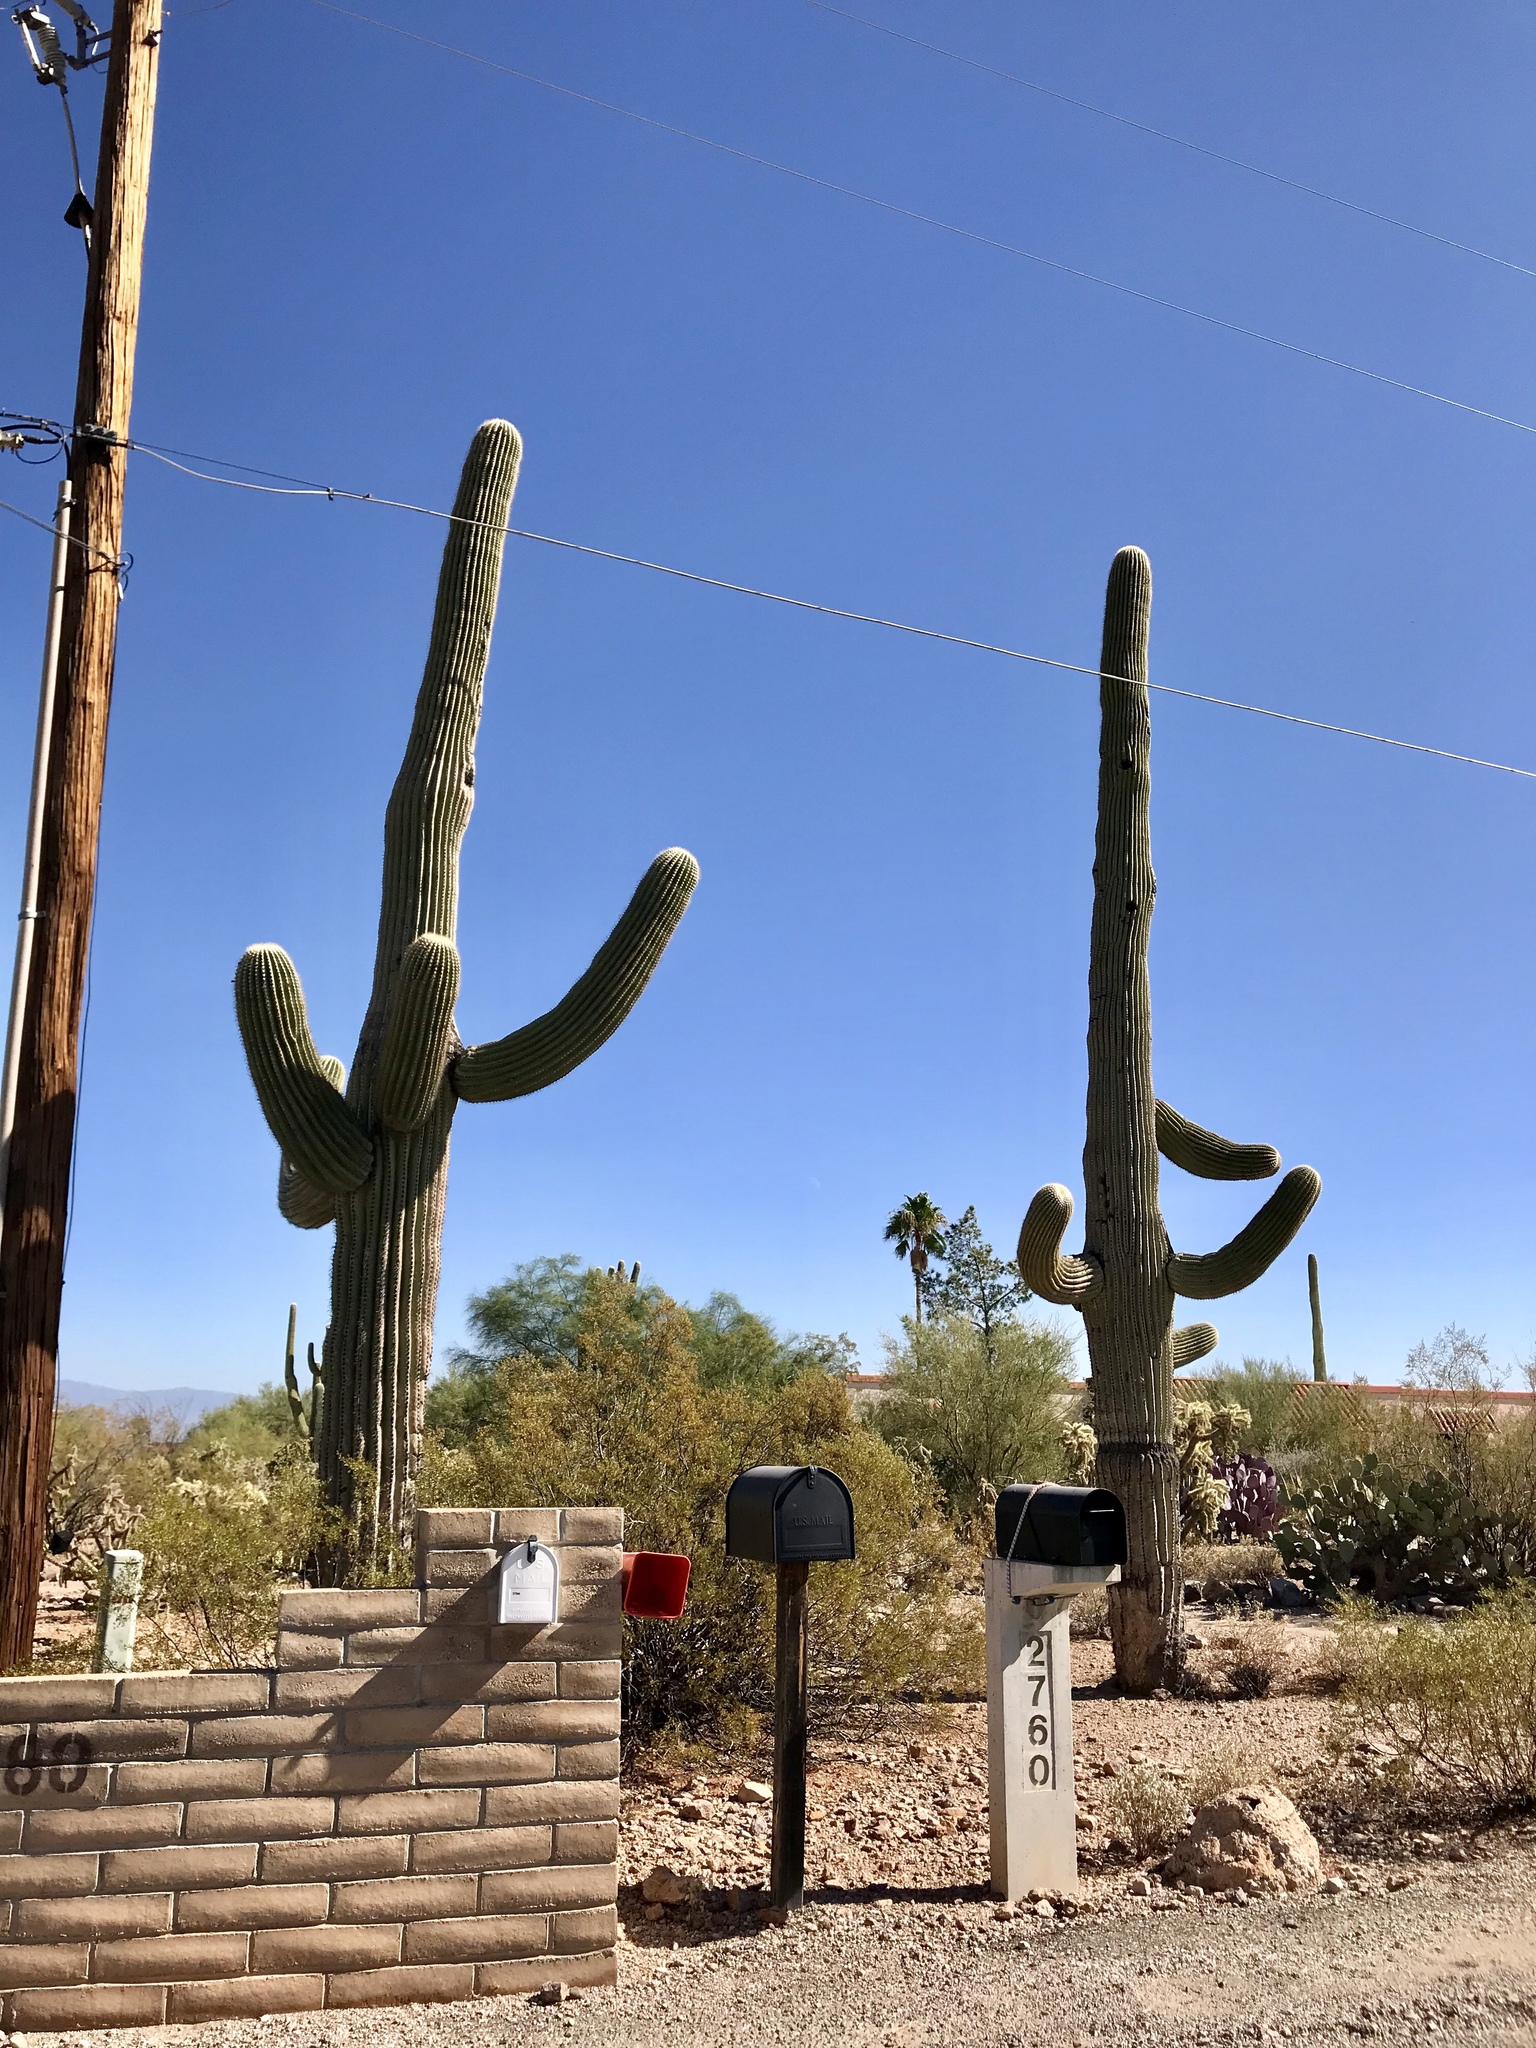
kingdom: Plantae
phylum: Tracheophyta
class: Magnoliopsida
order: Caryophyllales
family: Cactaceae
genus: Carnegiea
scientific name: Carnegiea gigantea
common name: Saguaro
